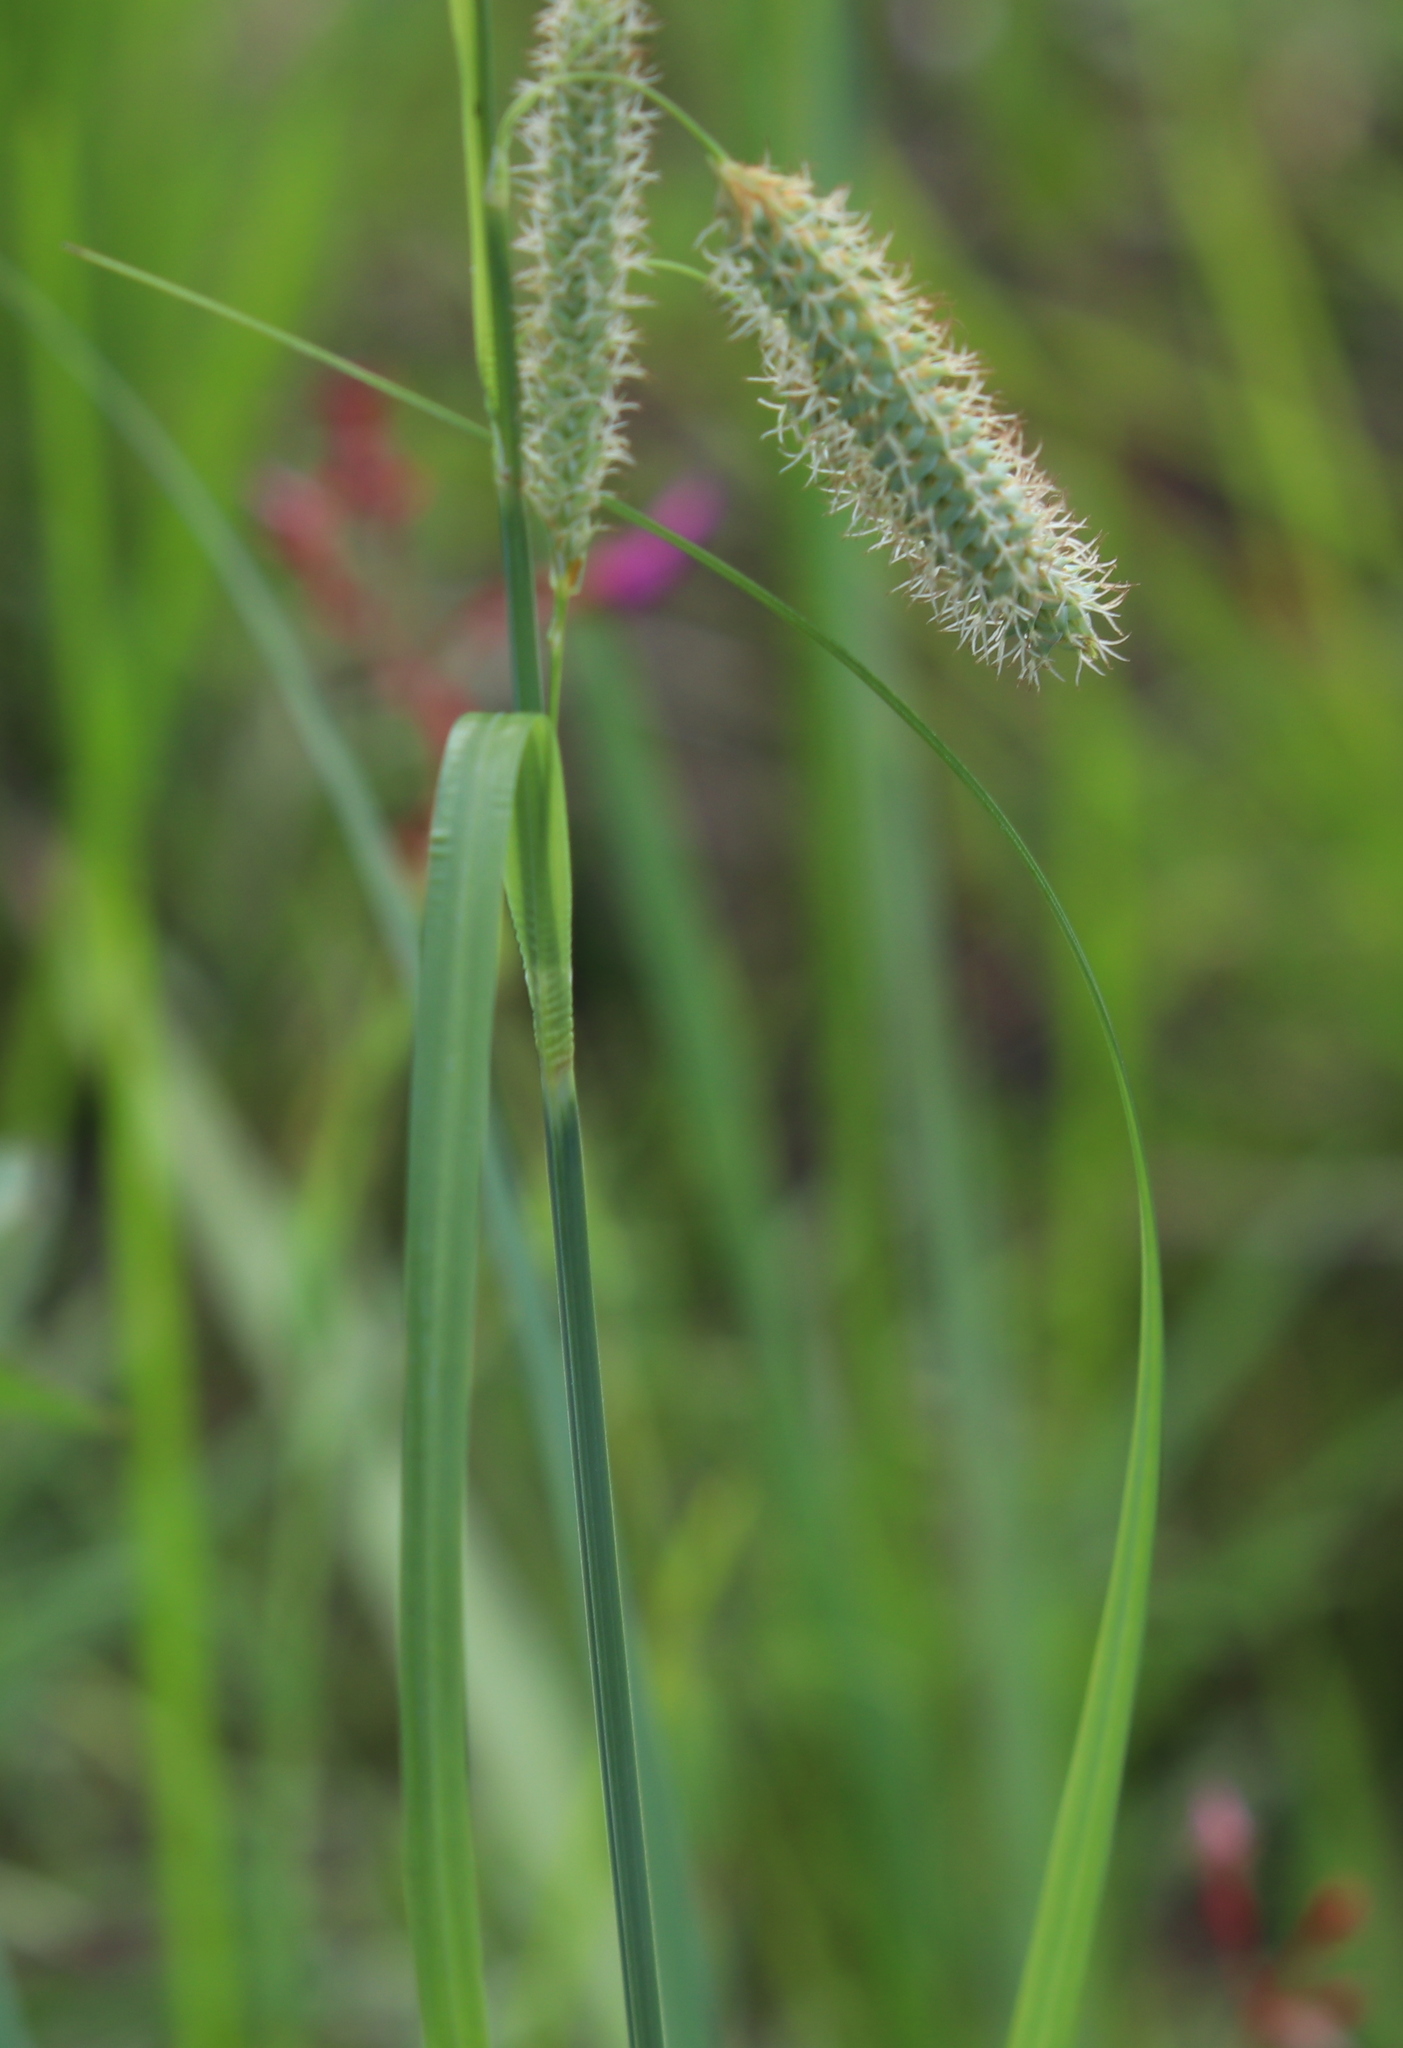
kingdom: Plantae
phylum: Tracheophyta
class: Liliopsida
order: Poales
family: Cyperaceae
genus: Carex
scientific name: Carex glaucescens
